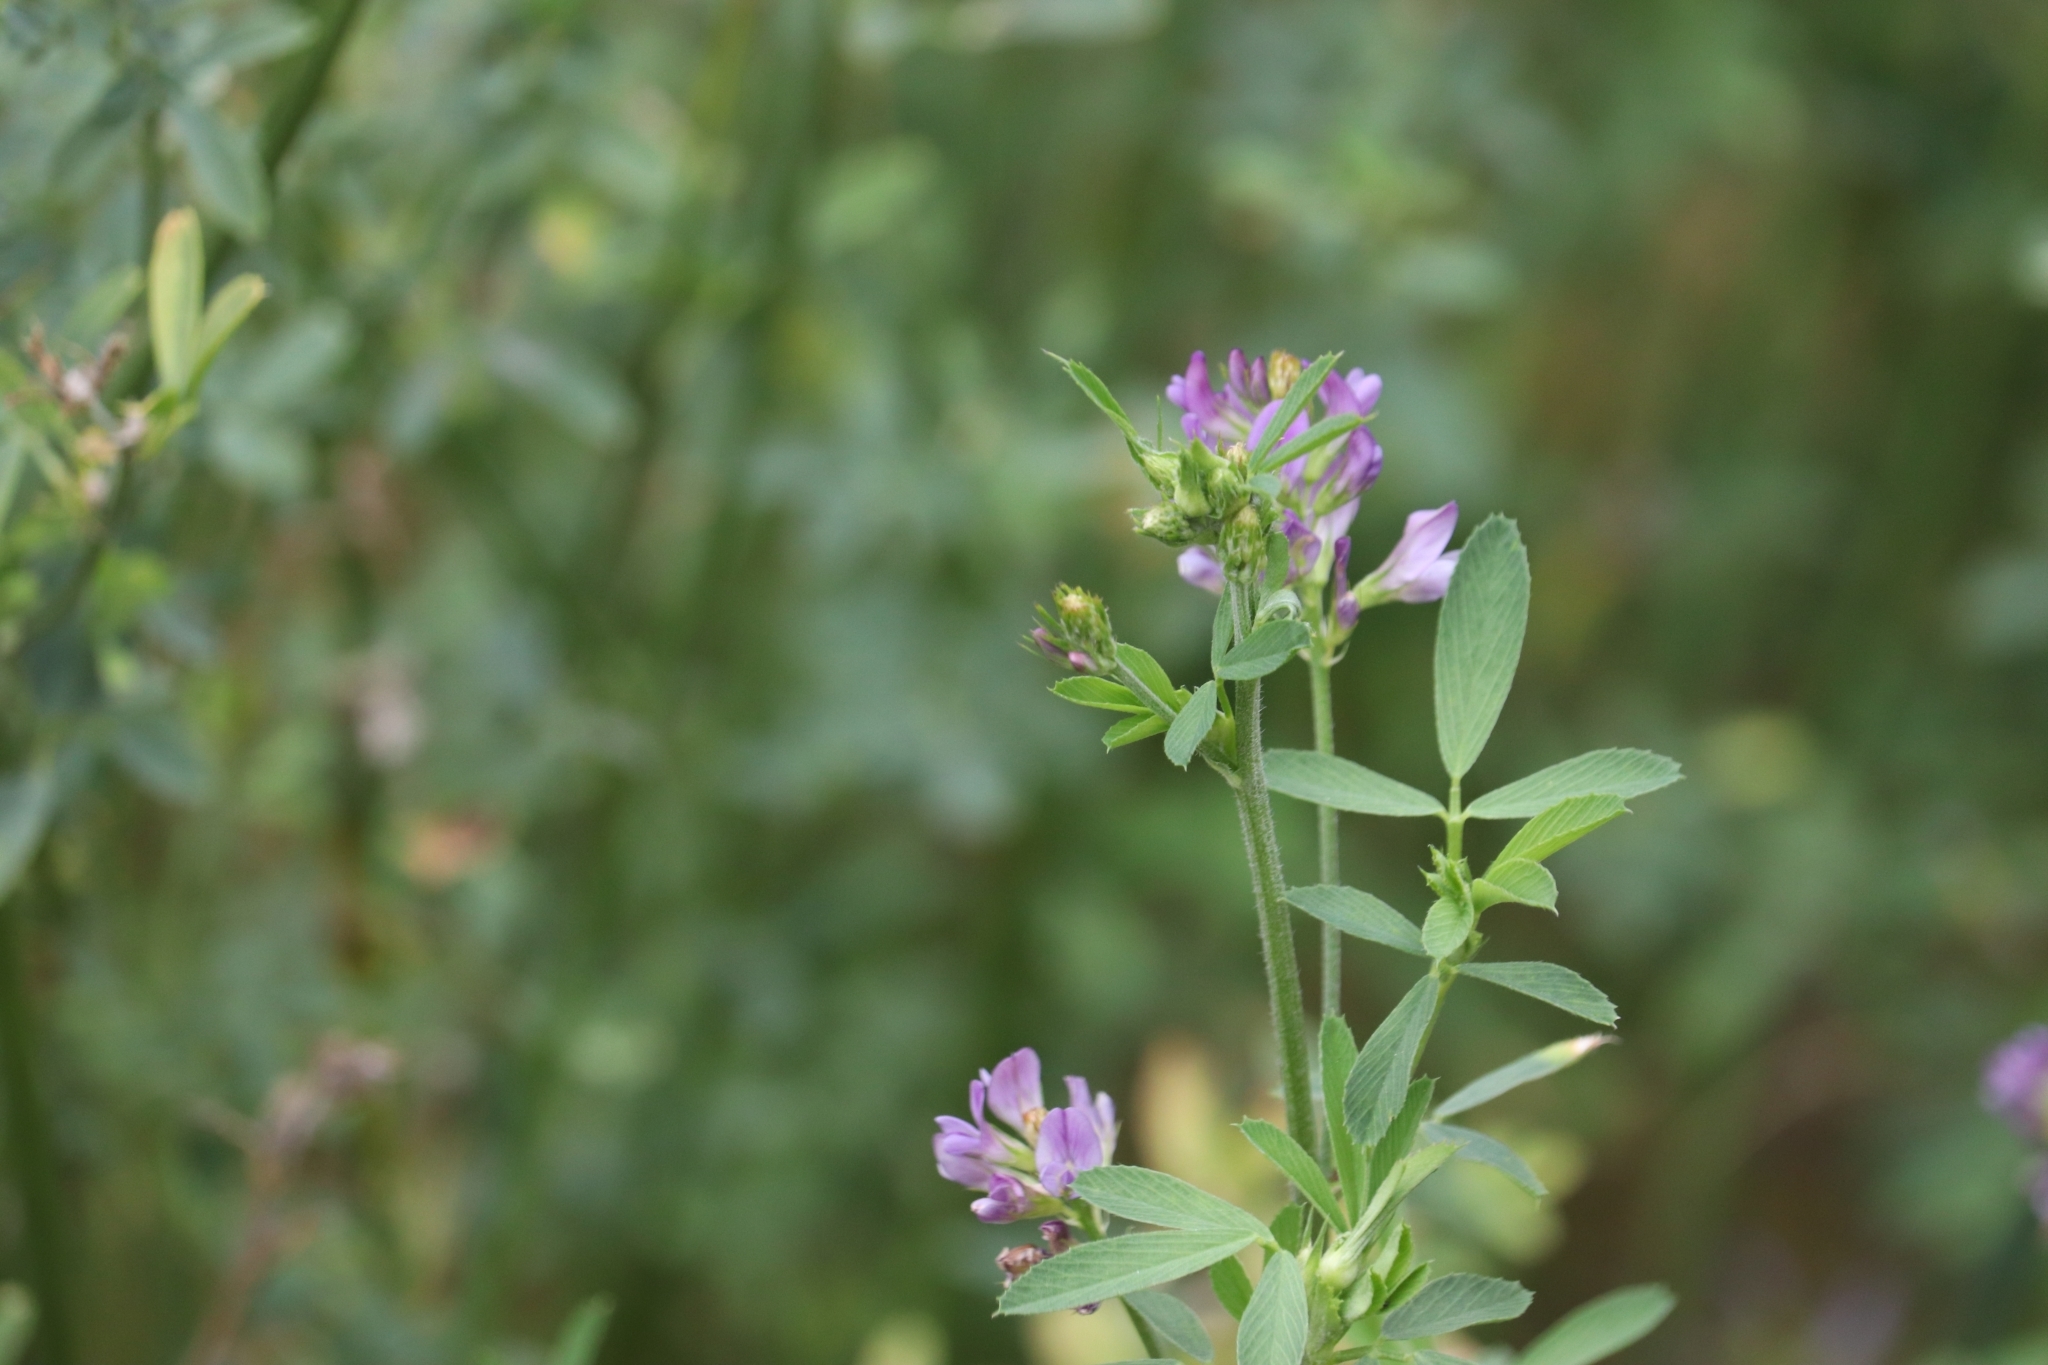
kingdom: Plantae
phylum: Tracheophyta
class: Magnoliopsida
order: Fabales
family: Fabaceae
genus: Medicago
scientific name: Medicago sativa
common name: Alfalfa
